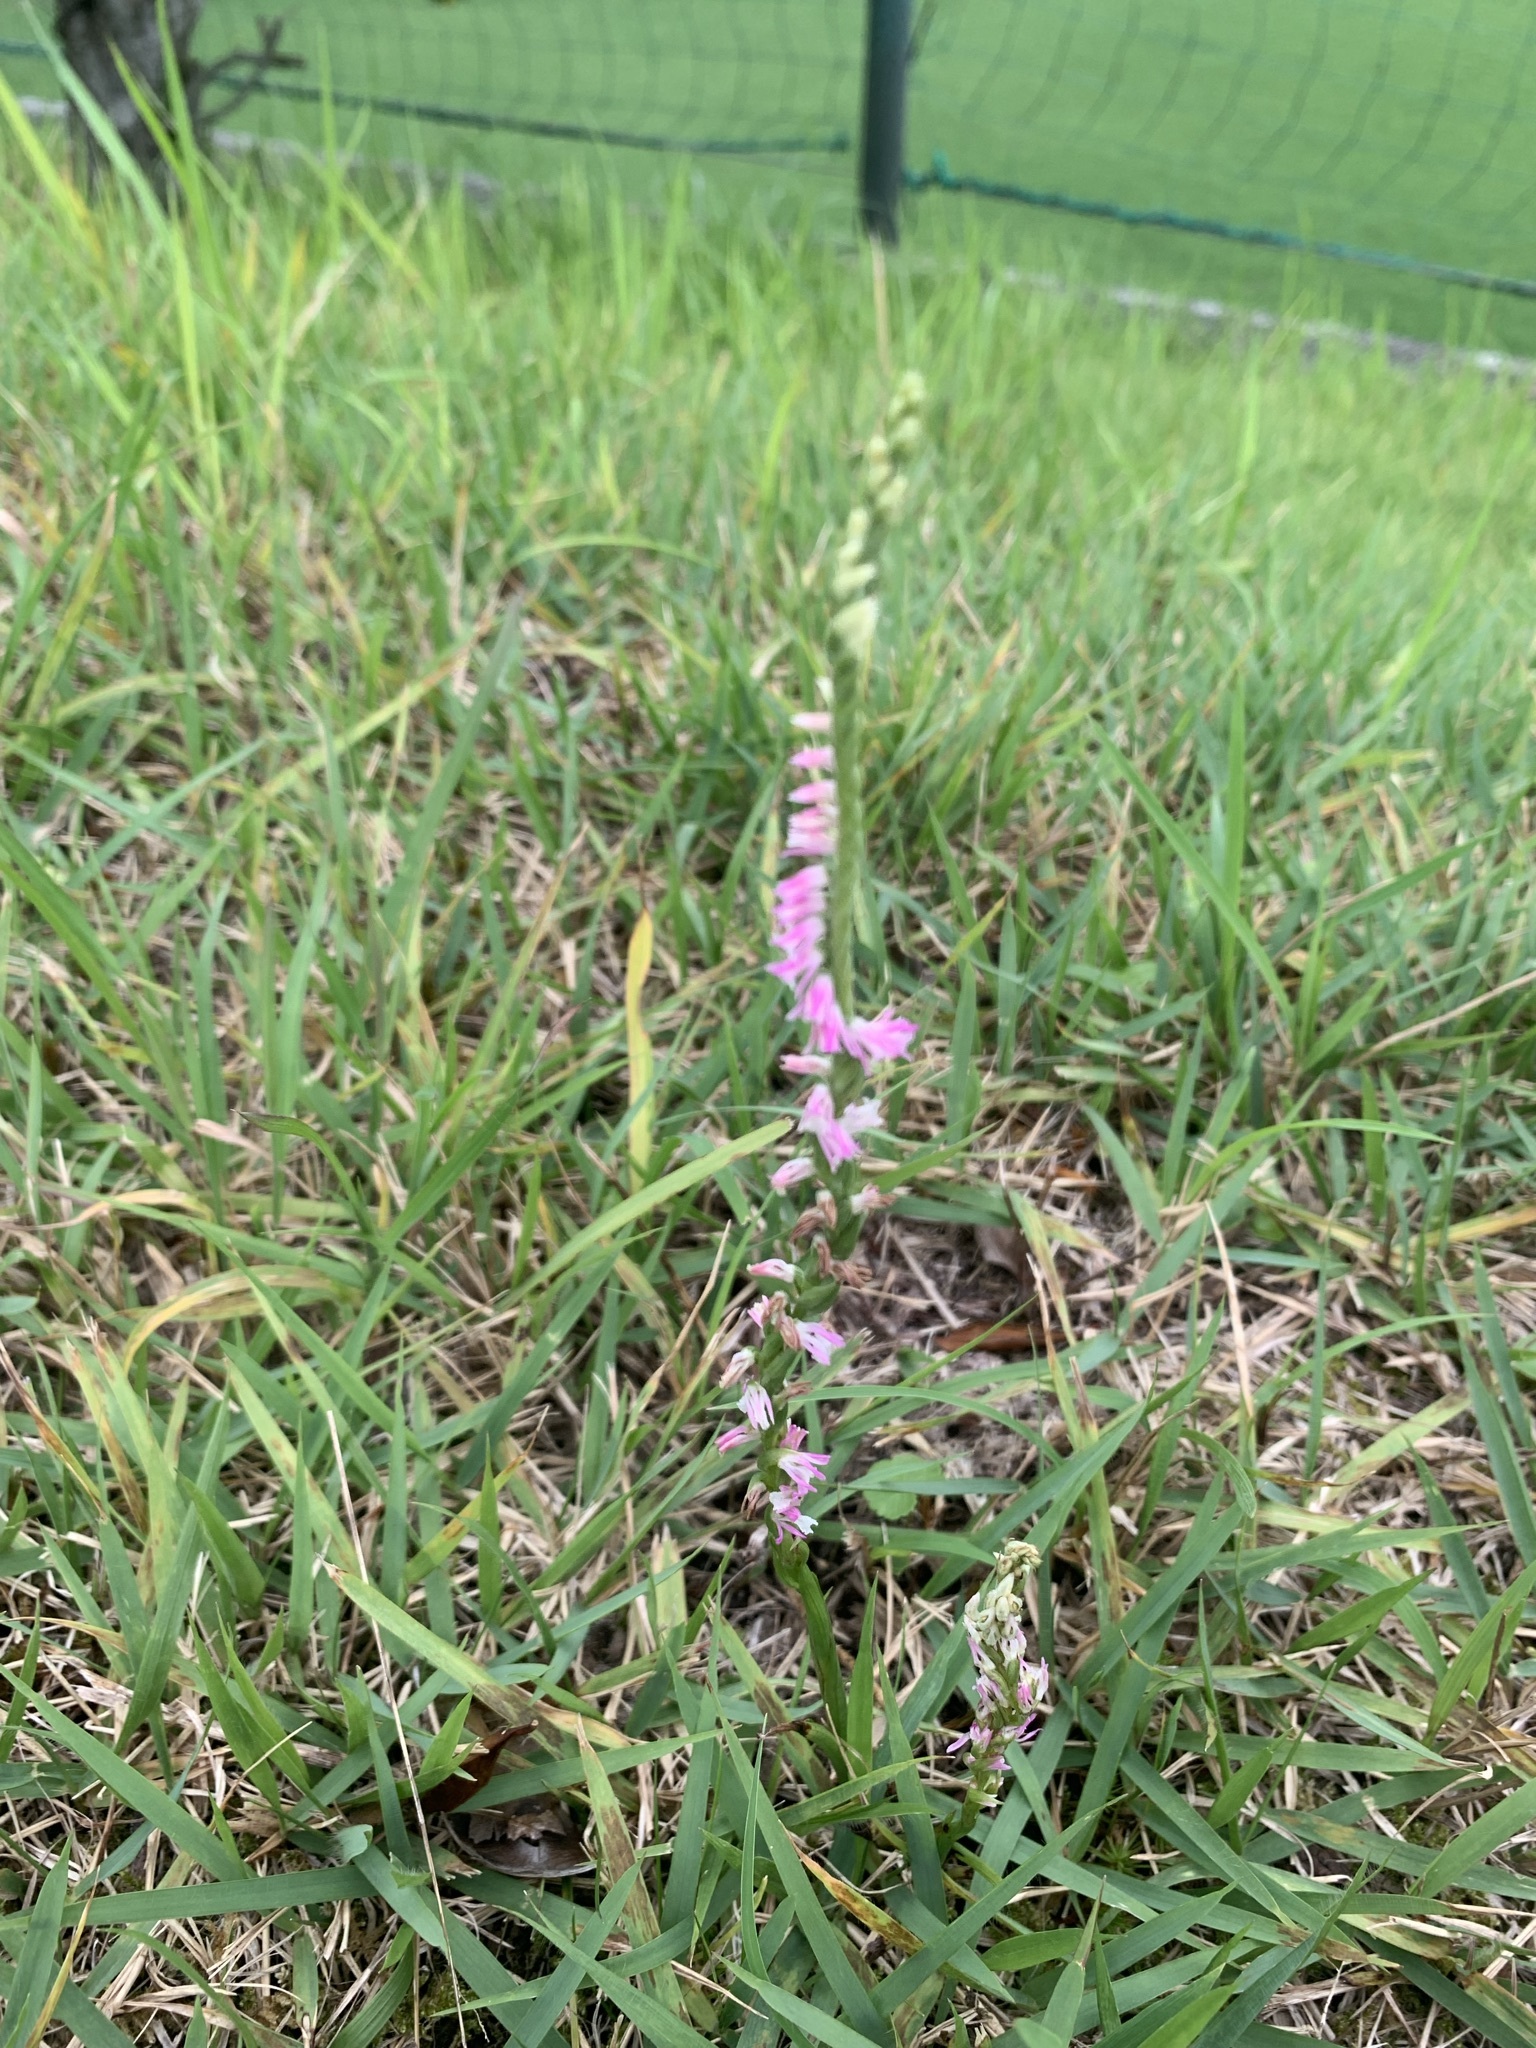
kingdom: Plantae
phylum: Tracheophyta
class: Liliopsida
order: Asparagales
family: Orchidaceae
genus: Spiranthes
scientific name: Spiranthes australis
